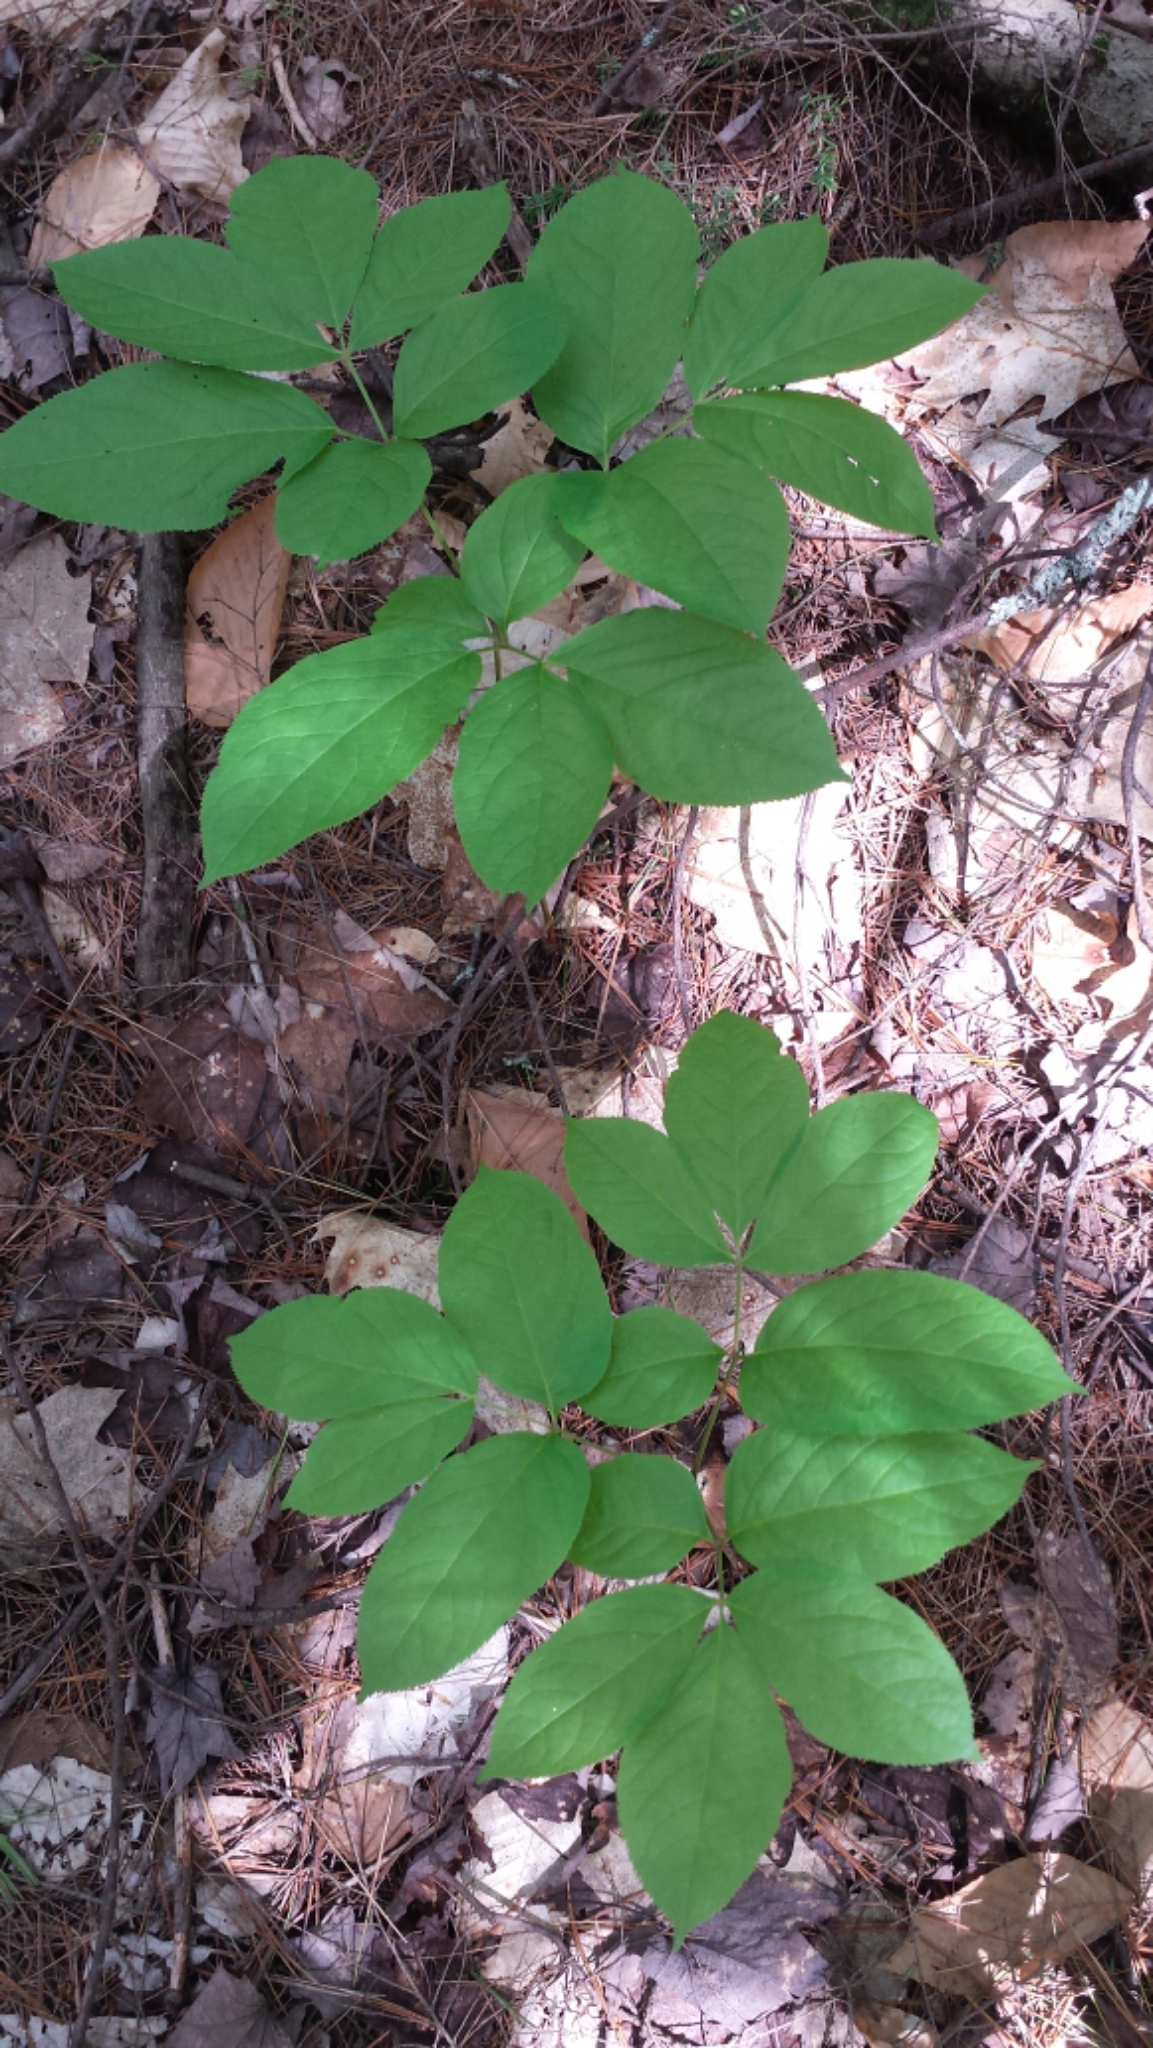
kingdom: Plantae
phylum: Tracheophyta
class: Magnoliopsida
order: Apiales
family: Araliaceae
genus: Aralia
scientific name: Aralia nudicaulis
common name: Wild sarsaparilla
